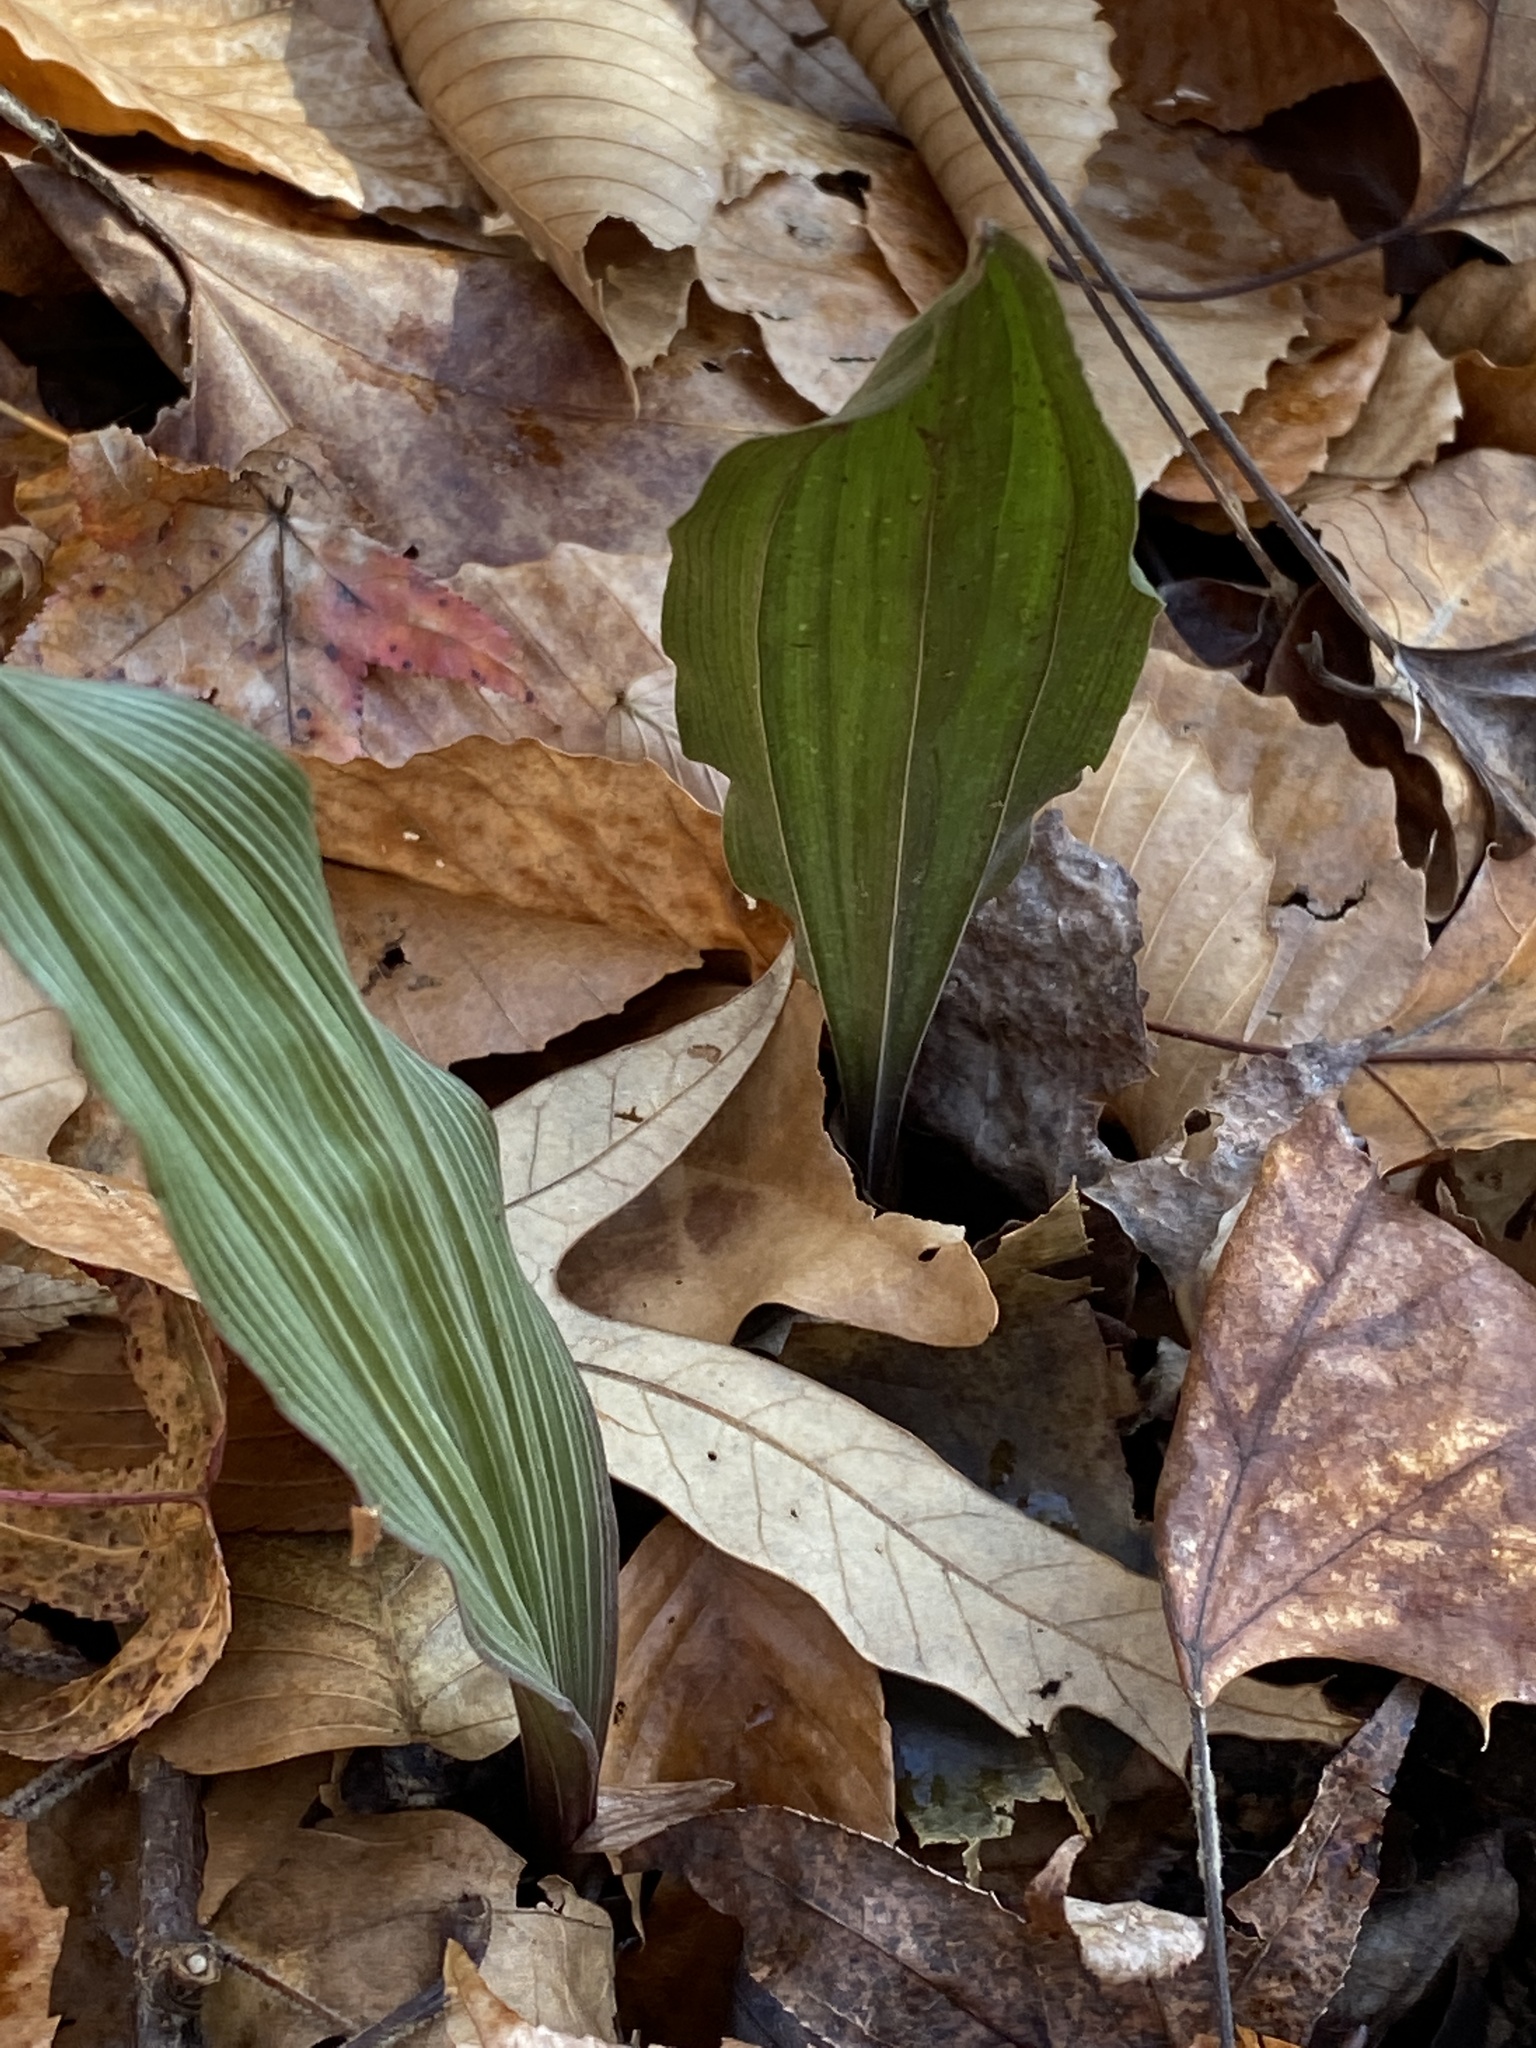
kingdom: Plantae
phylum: Tracheophyta
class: Liliopsida
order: Asparagales
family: Orchidaceae
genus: Aplectrum
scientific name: Aplectrum hyemale
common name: Adam-and-eve
